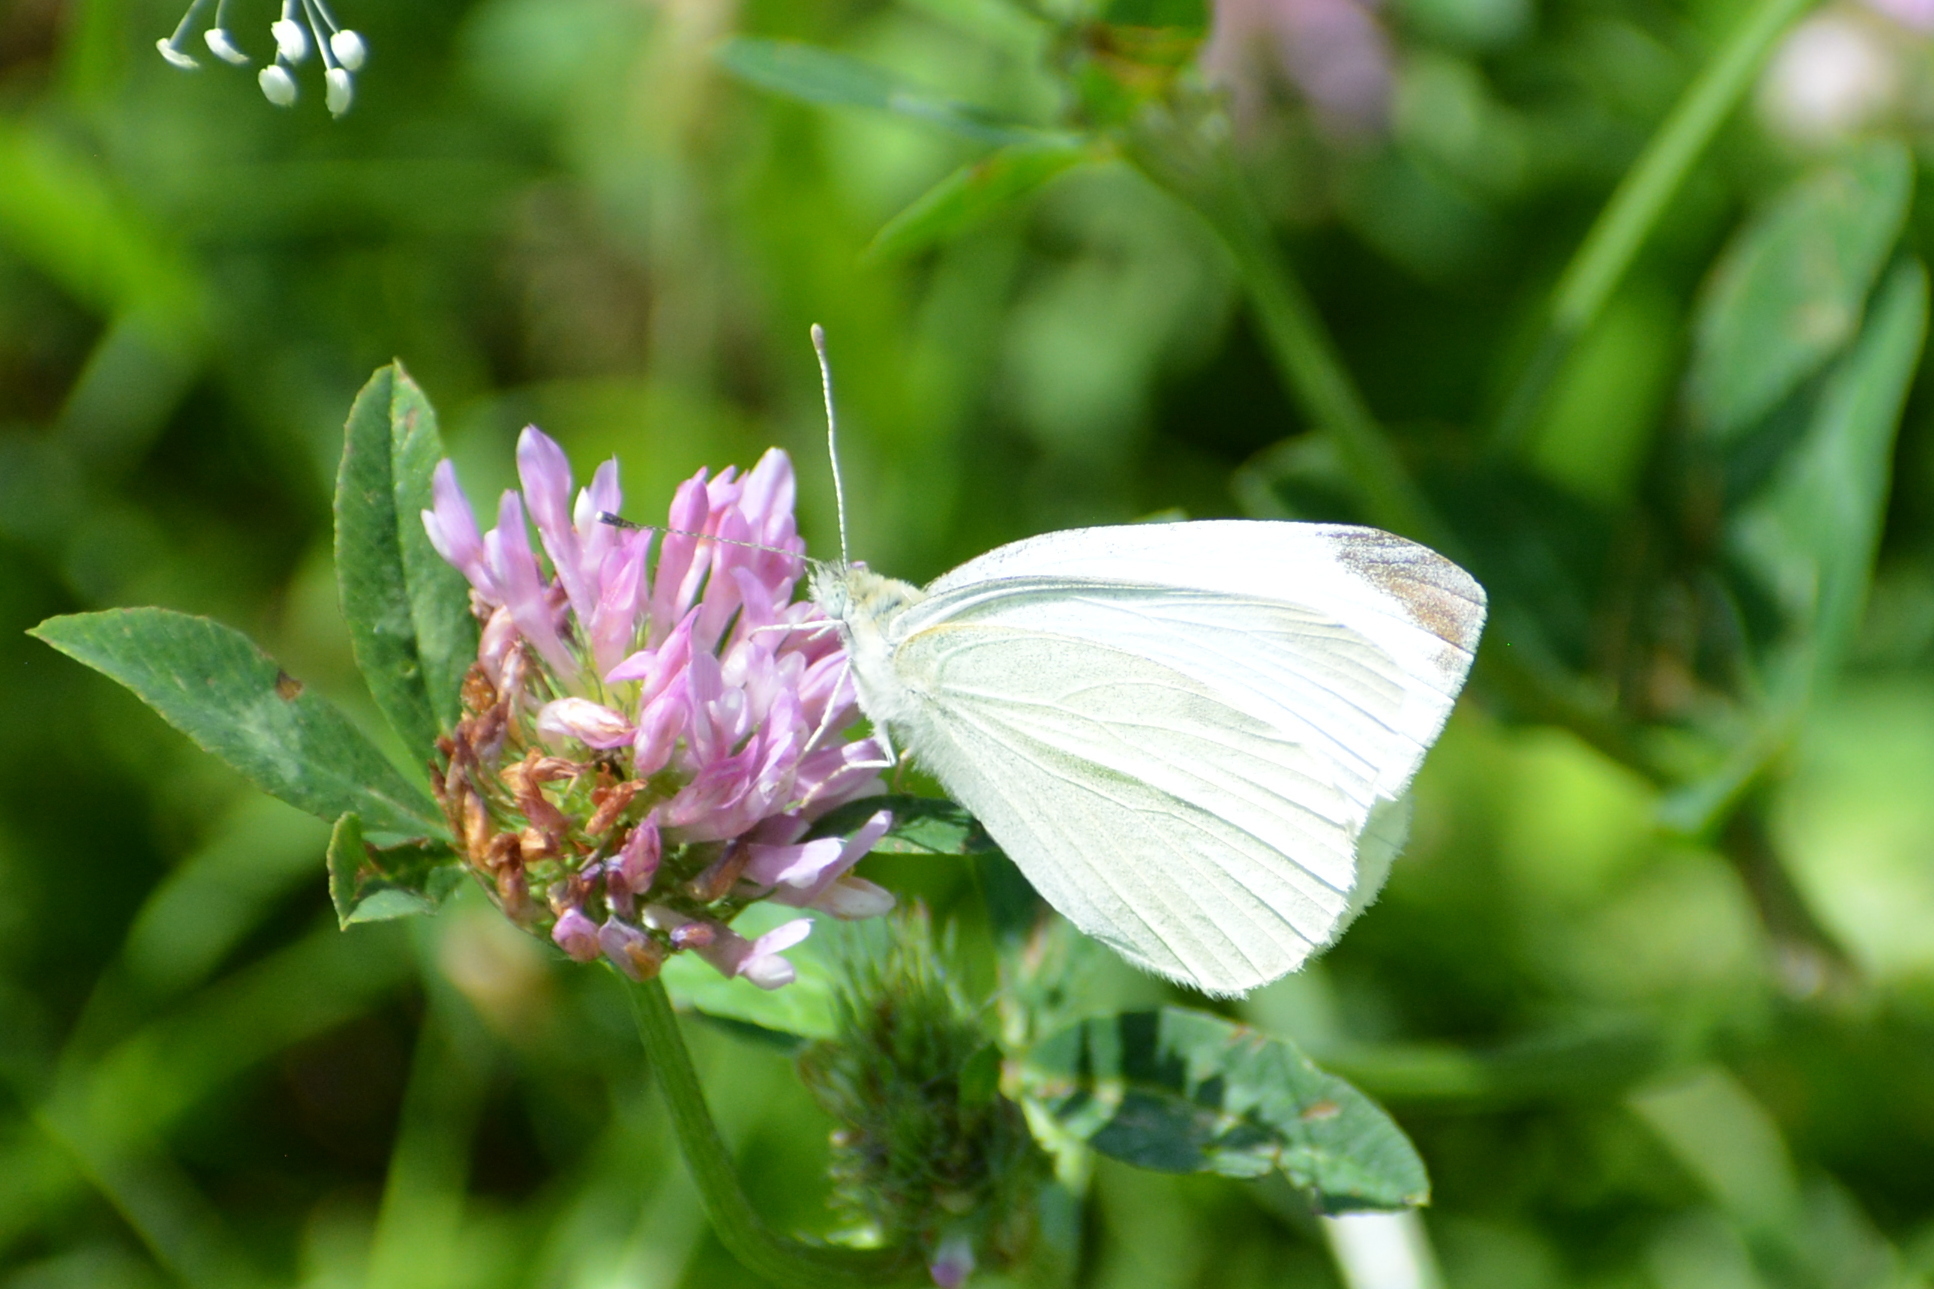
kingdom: Animalia
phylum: Arthropoda
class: Insecta
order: Lepidoptera
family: Pieridae
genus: Pieris
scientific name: Pieris rapae
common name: Small white
